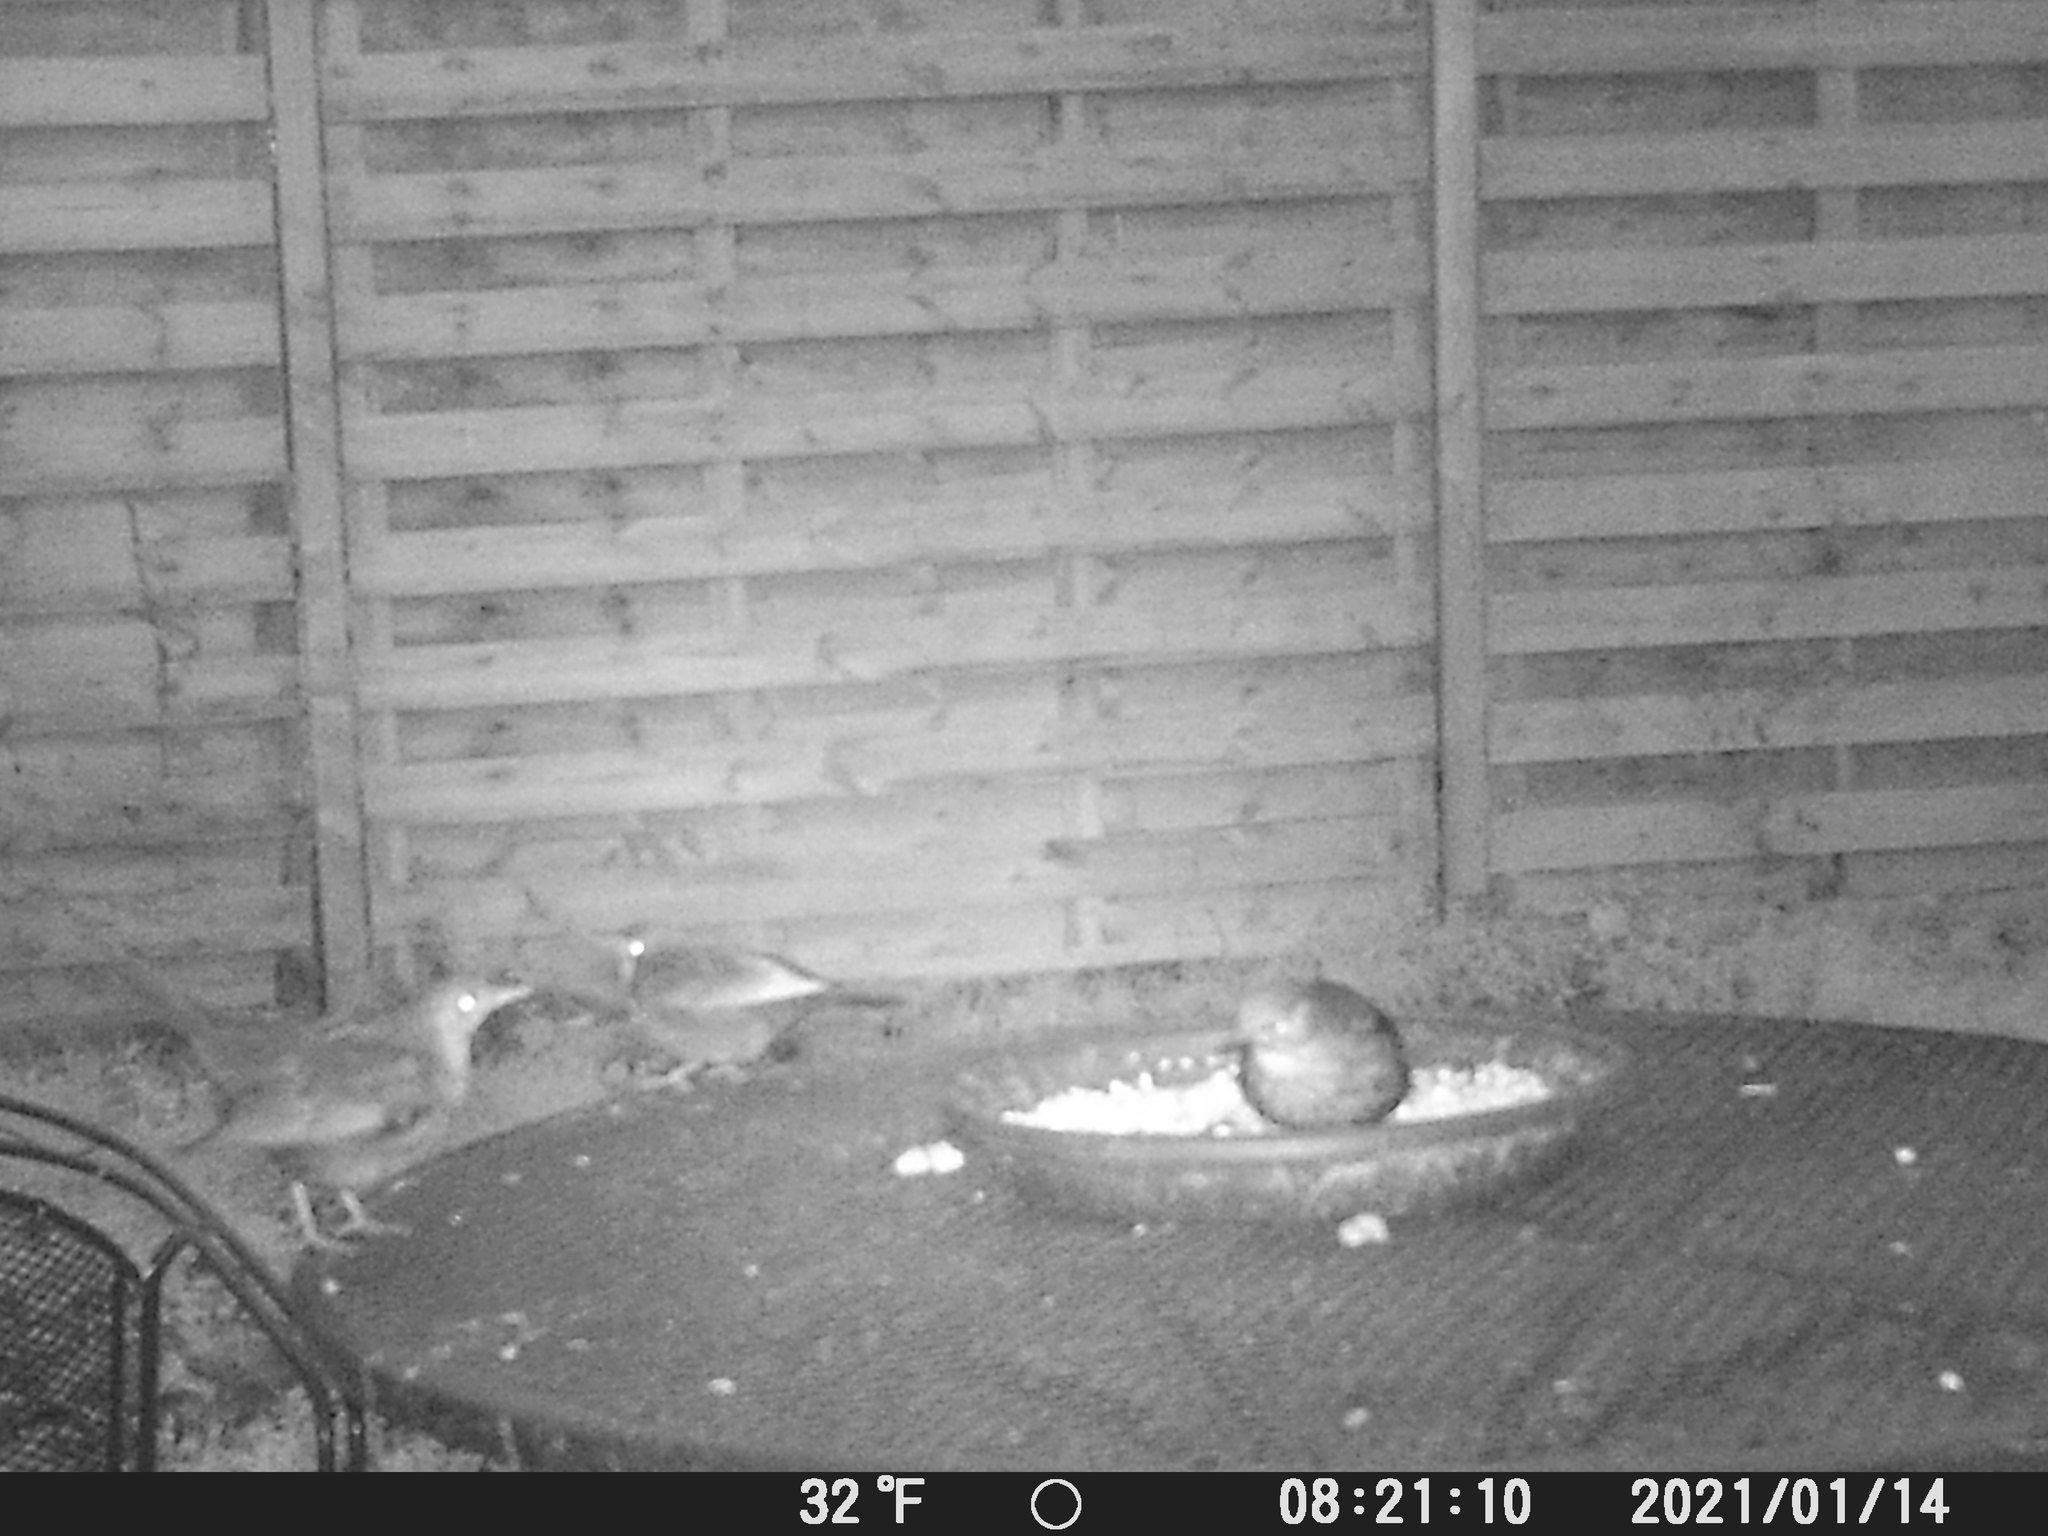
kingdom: Animalia
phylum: Chordata
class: Aves
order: Passeriformes
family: Turdidae
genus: Turdus
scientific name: Turdus merula
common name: Common blackbird
